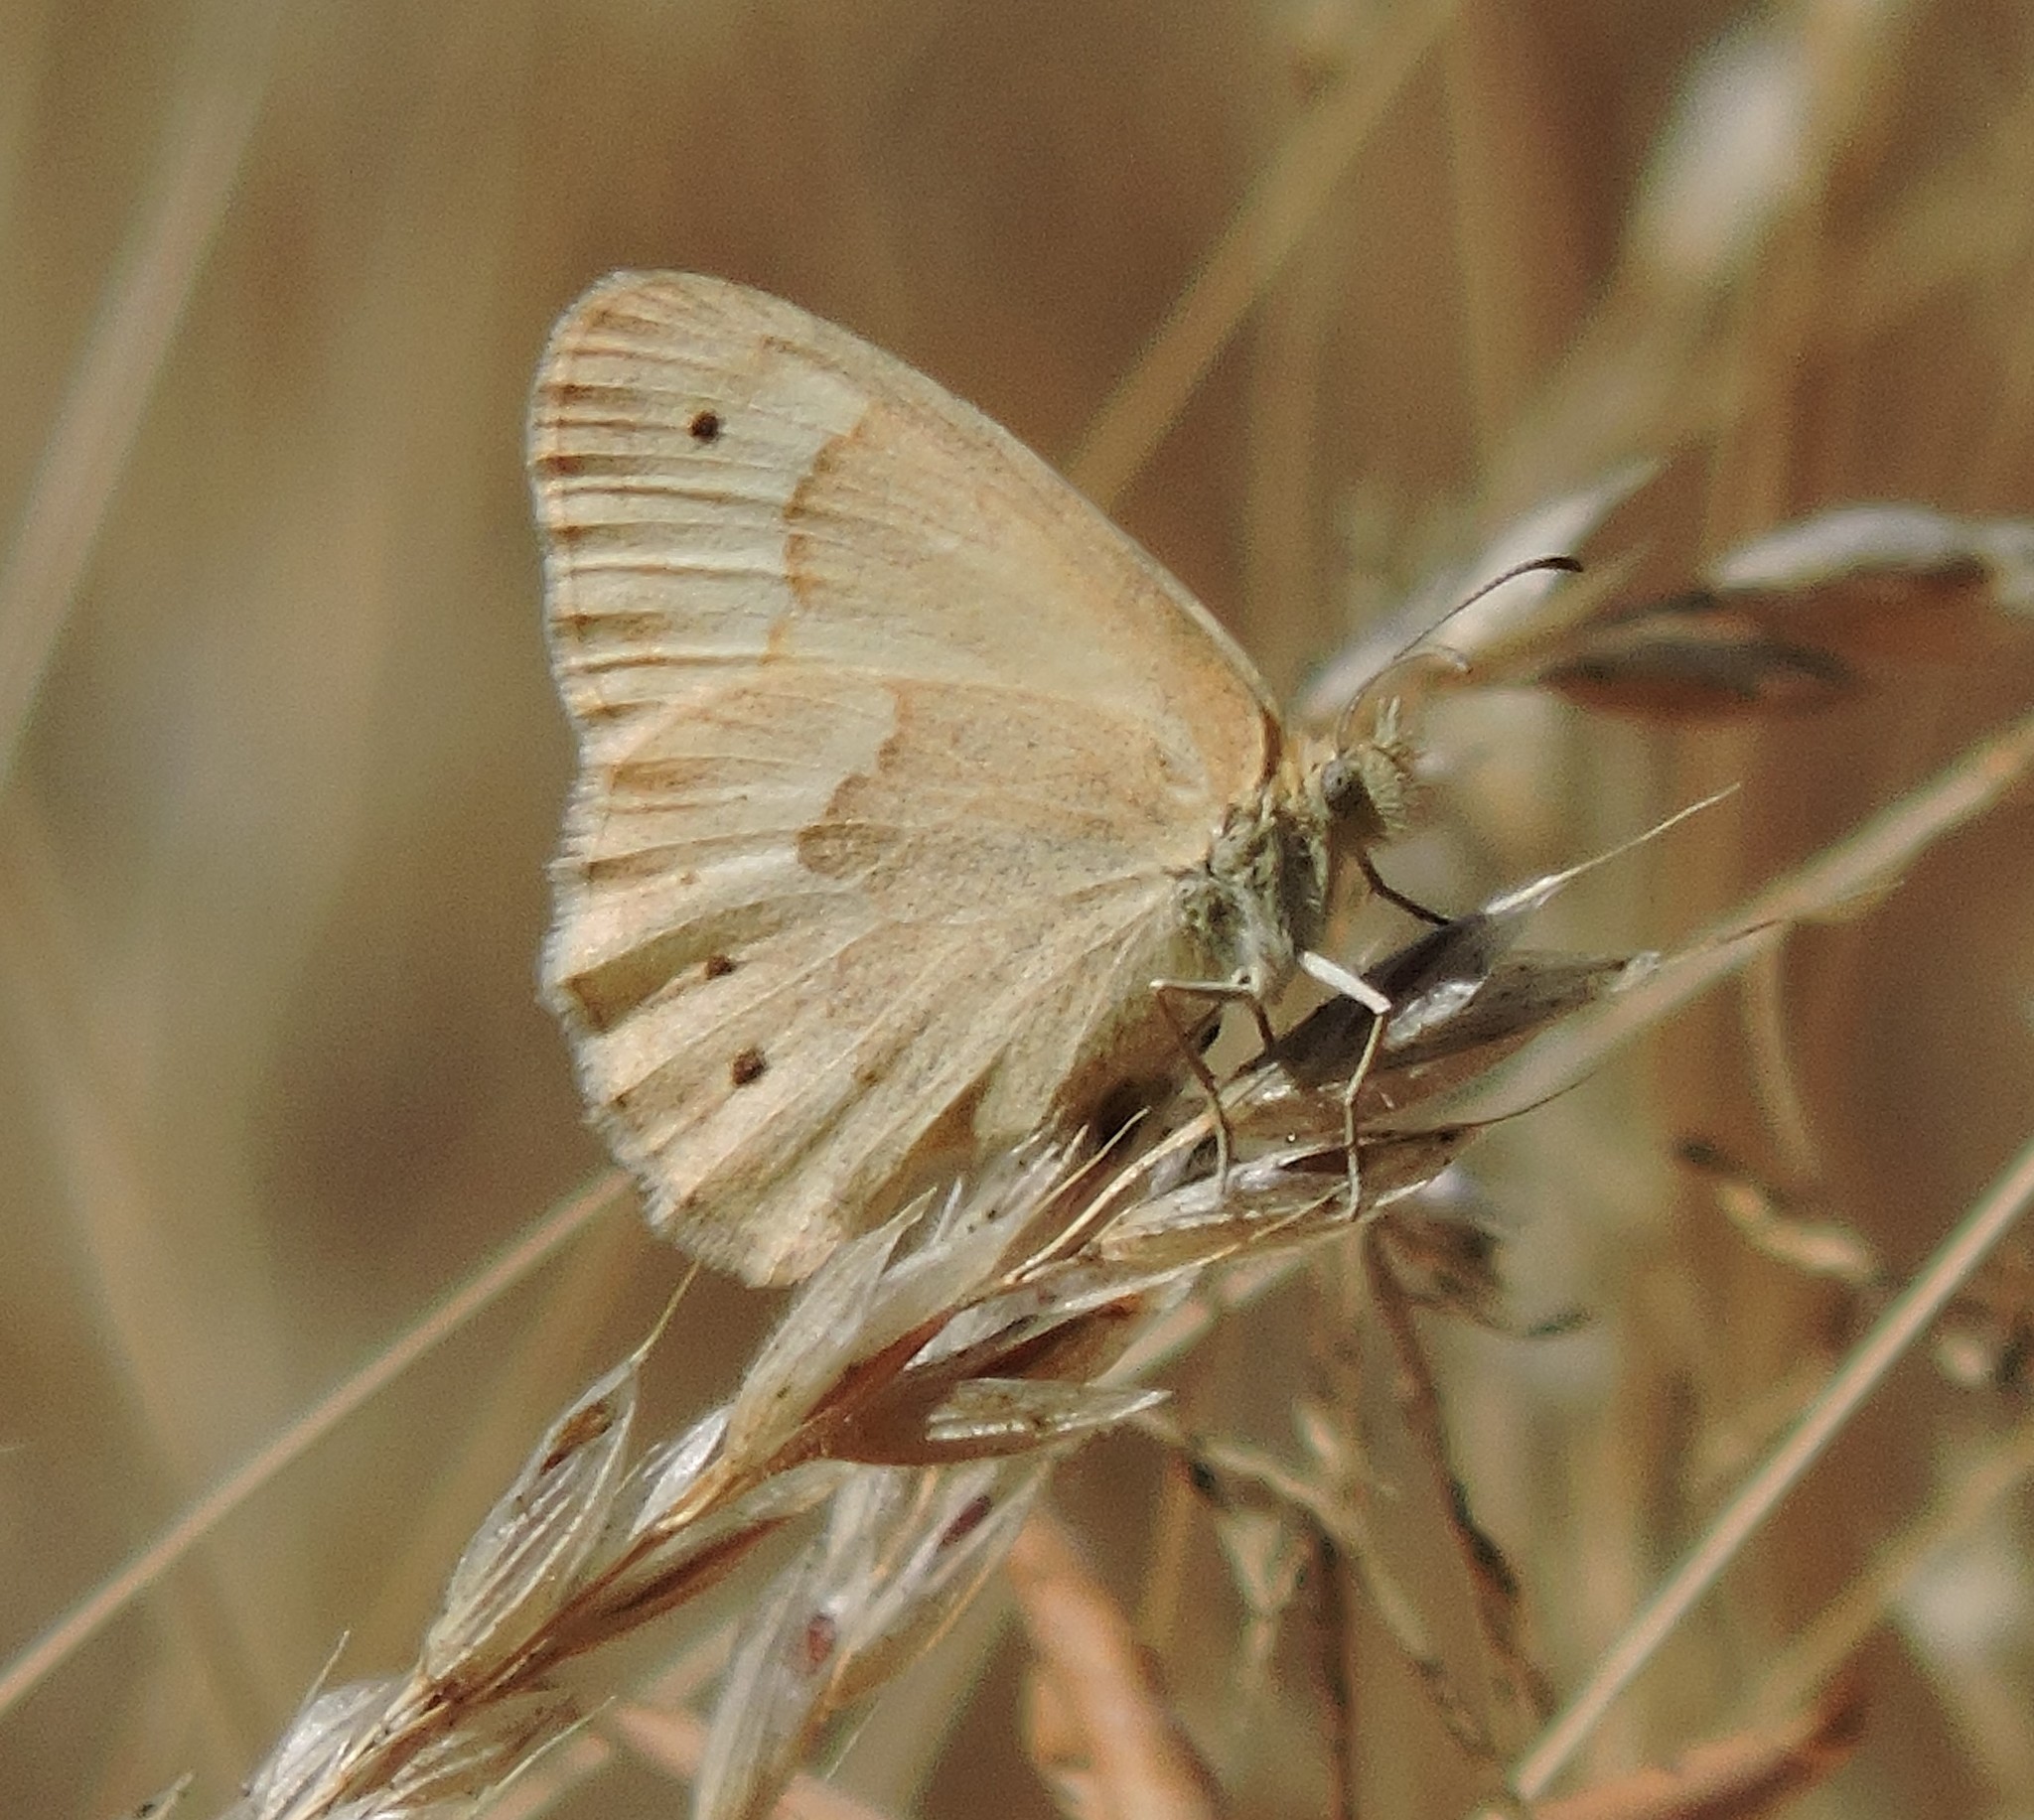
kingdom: Animalia
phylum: Arthropoda
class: Insecta
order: Lepidoptera
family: Nymphalidae
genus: Coenonympha
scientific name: Coenonympha california
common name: Common ringlet
